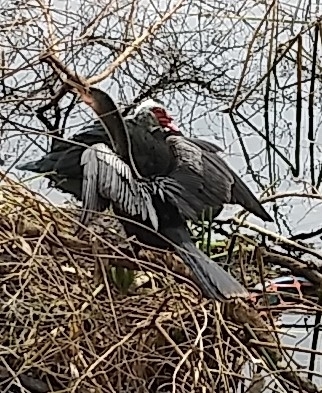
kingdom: Animalia
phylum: Chordata
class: Aves
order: Suliformes
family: Anhingidae
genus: Anhinga
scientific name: Anhinga anhinga
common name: Anhinga
